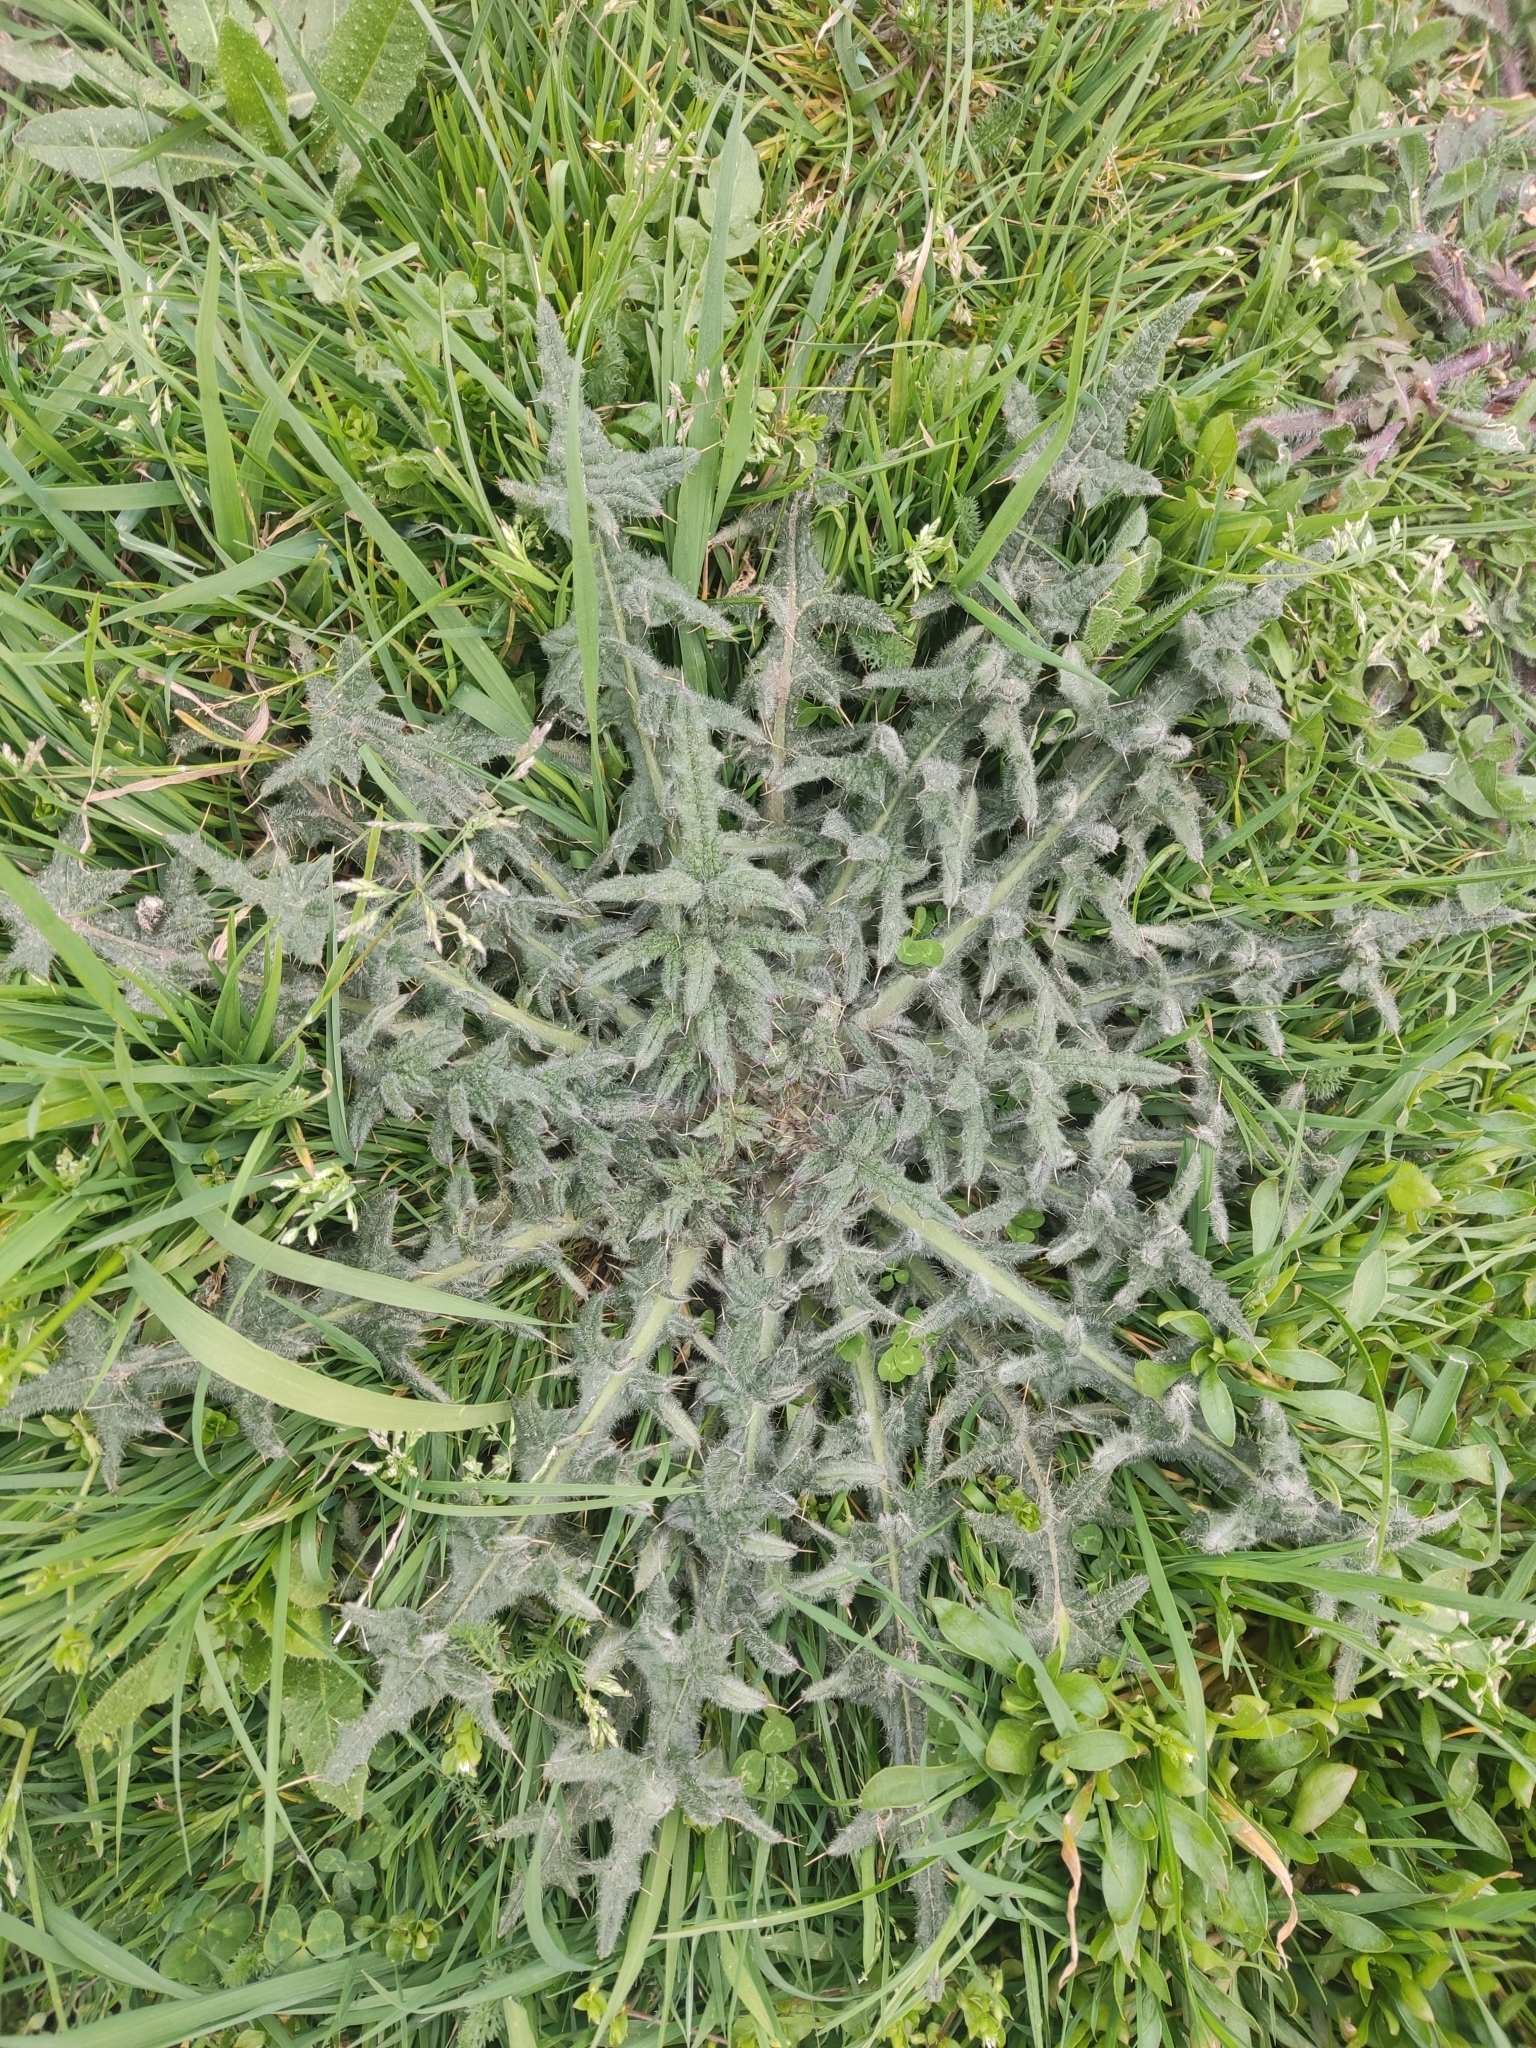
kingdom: Plantae
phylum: Tracheophyta
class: Magnoliopsida
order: Asterales
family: Asteraceae
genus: Cirsium
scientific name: Cirsium vulgare
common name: Bull thistle
